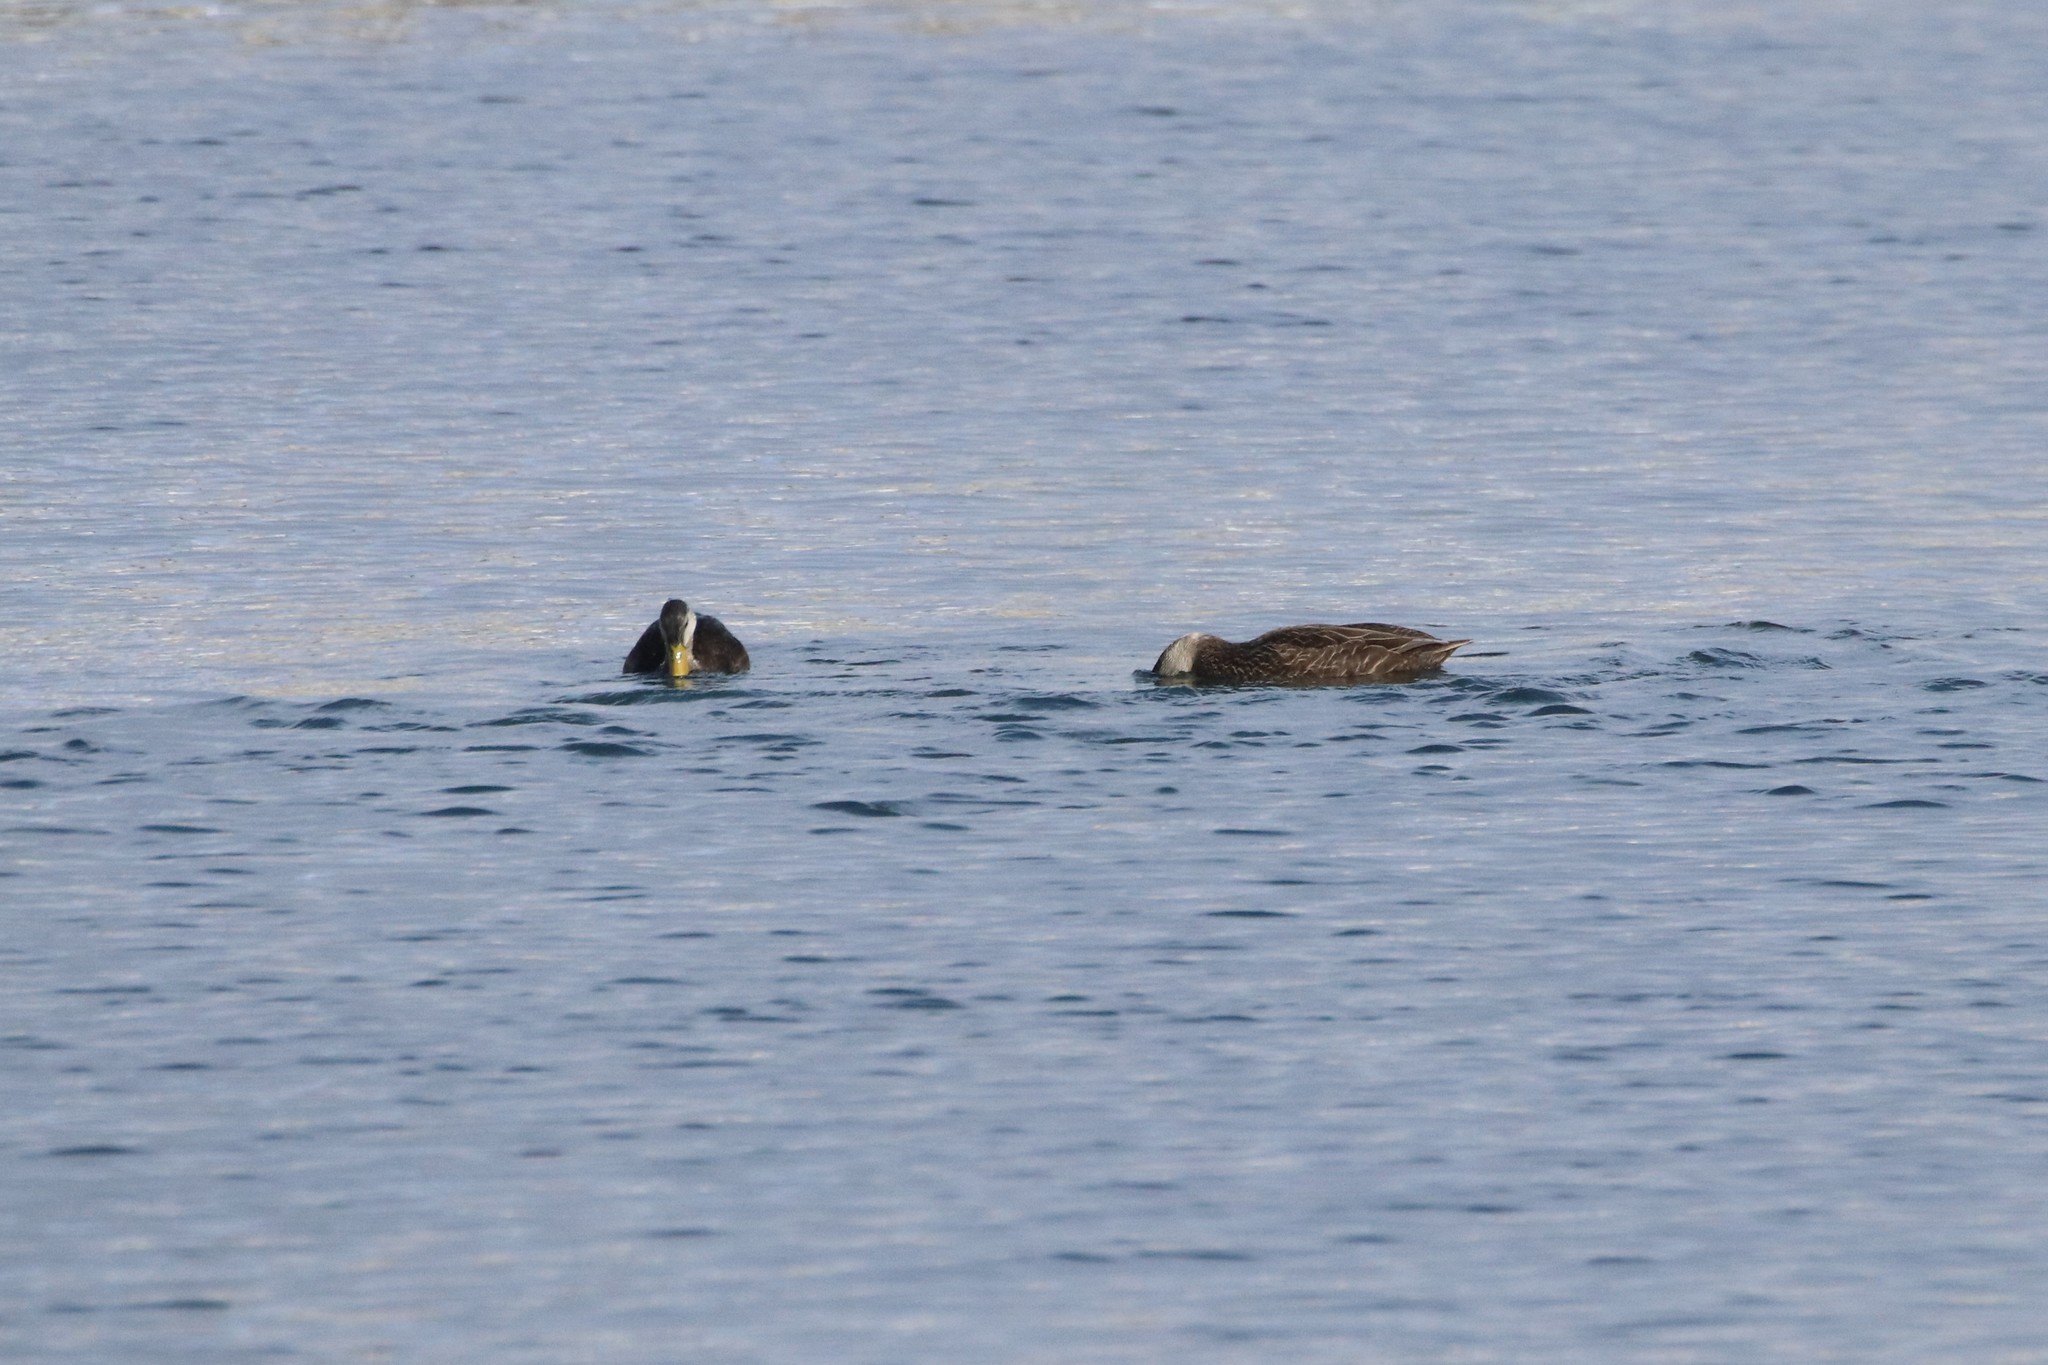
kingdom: Animalia
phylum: Chordata
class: Aves
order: Anseriformes
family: Anatidae
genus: Anas
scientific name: Anas rubripes
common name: American black duck
